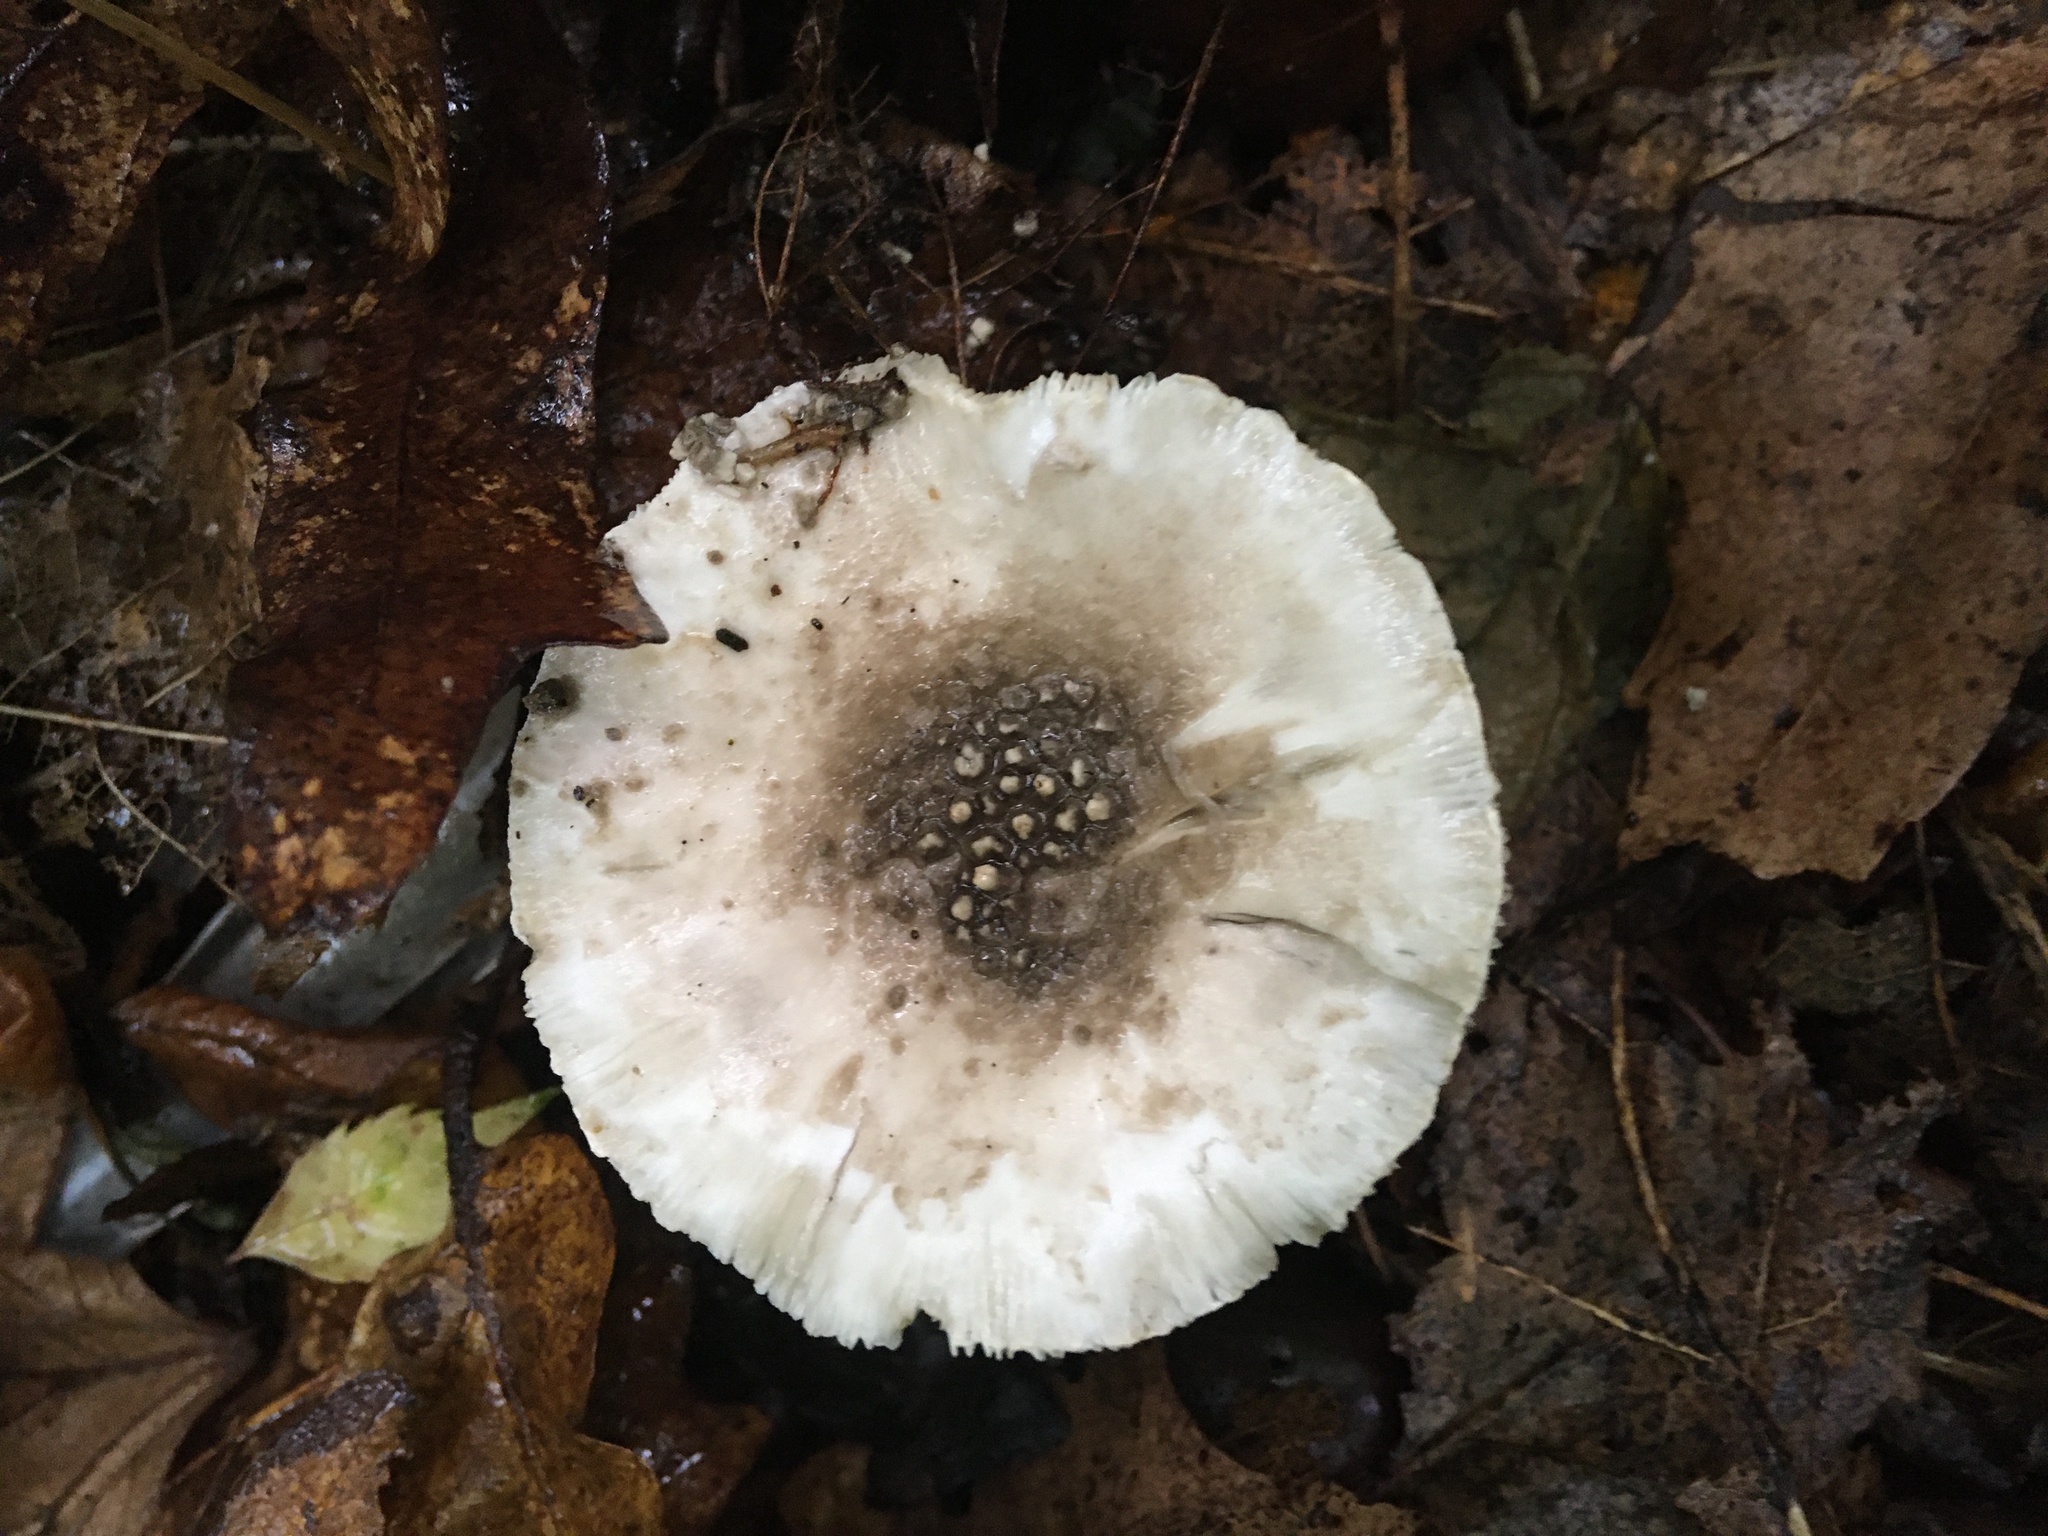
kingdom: Fungi
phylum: Basidiomycota
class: Agaricomycetes
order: Agaricales
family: Amanitaceae
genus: Amanita
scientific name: Amanita onusta
